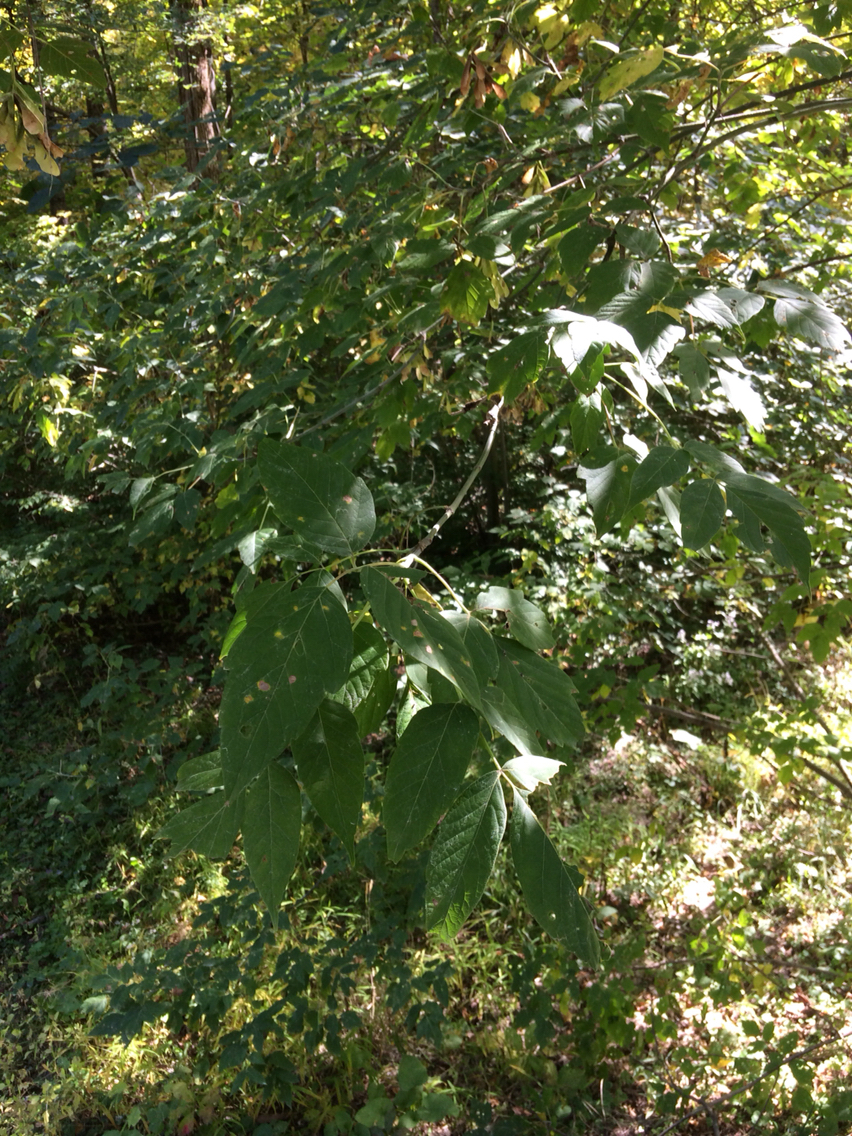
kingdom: Plantae
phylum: Tracheophyta
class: Magnoliopsida
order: Sapindales
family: Sapindaceae
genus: Acer
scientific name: Acer negundo
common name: Ashleaf maple
